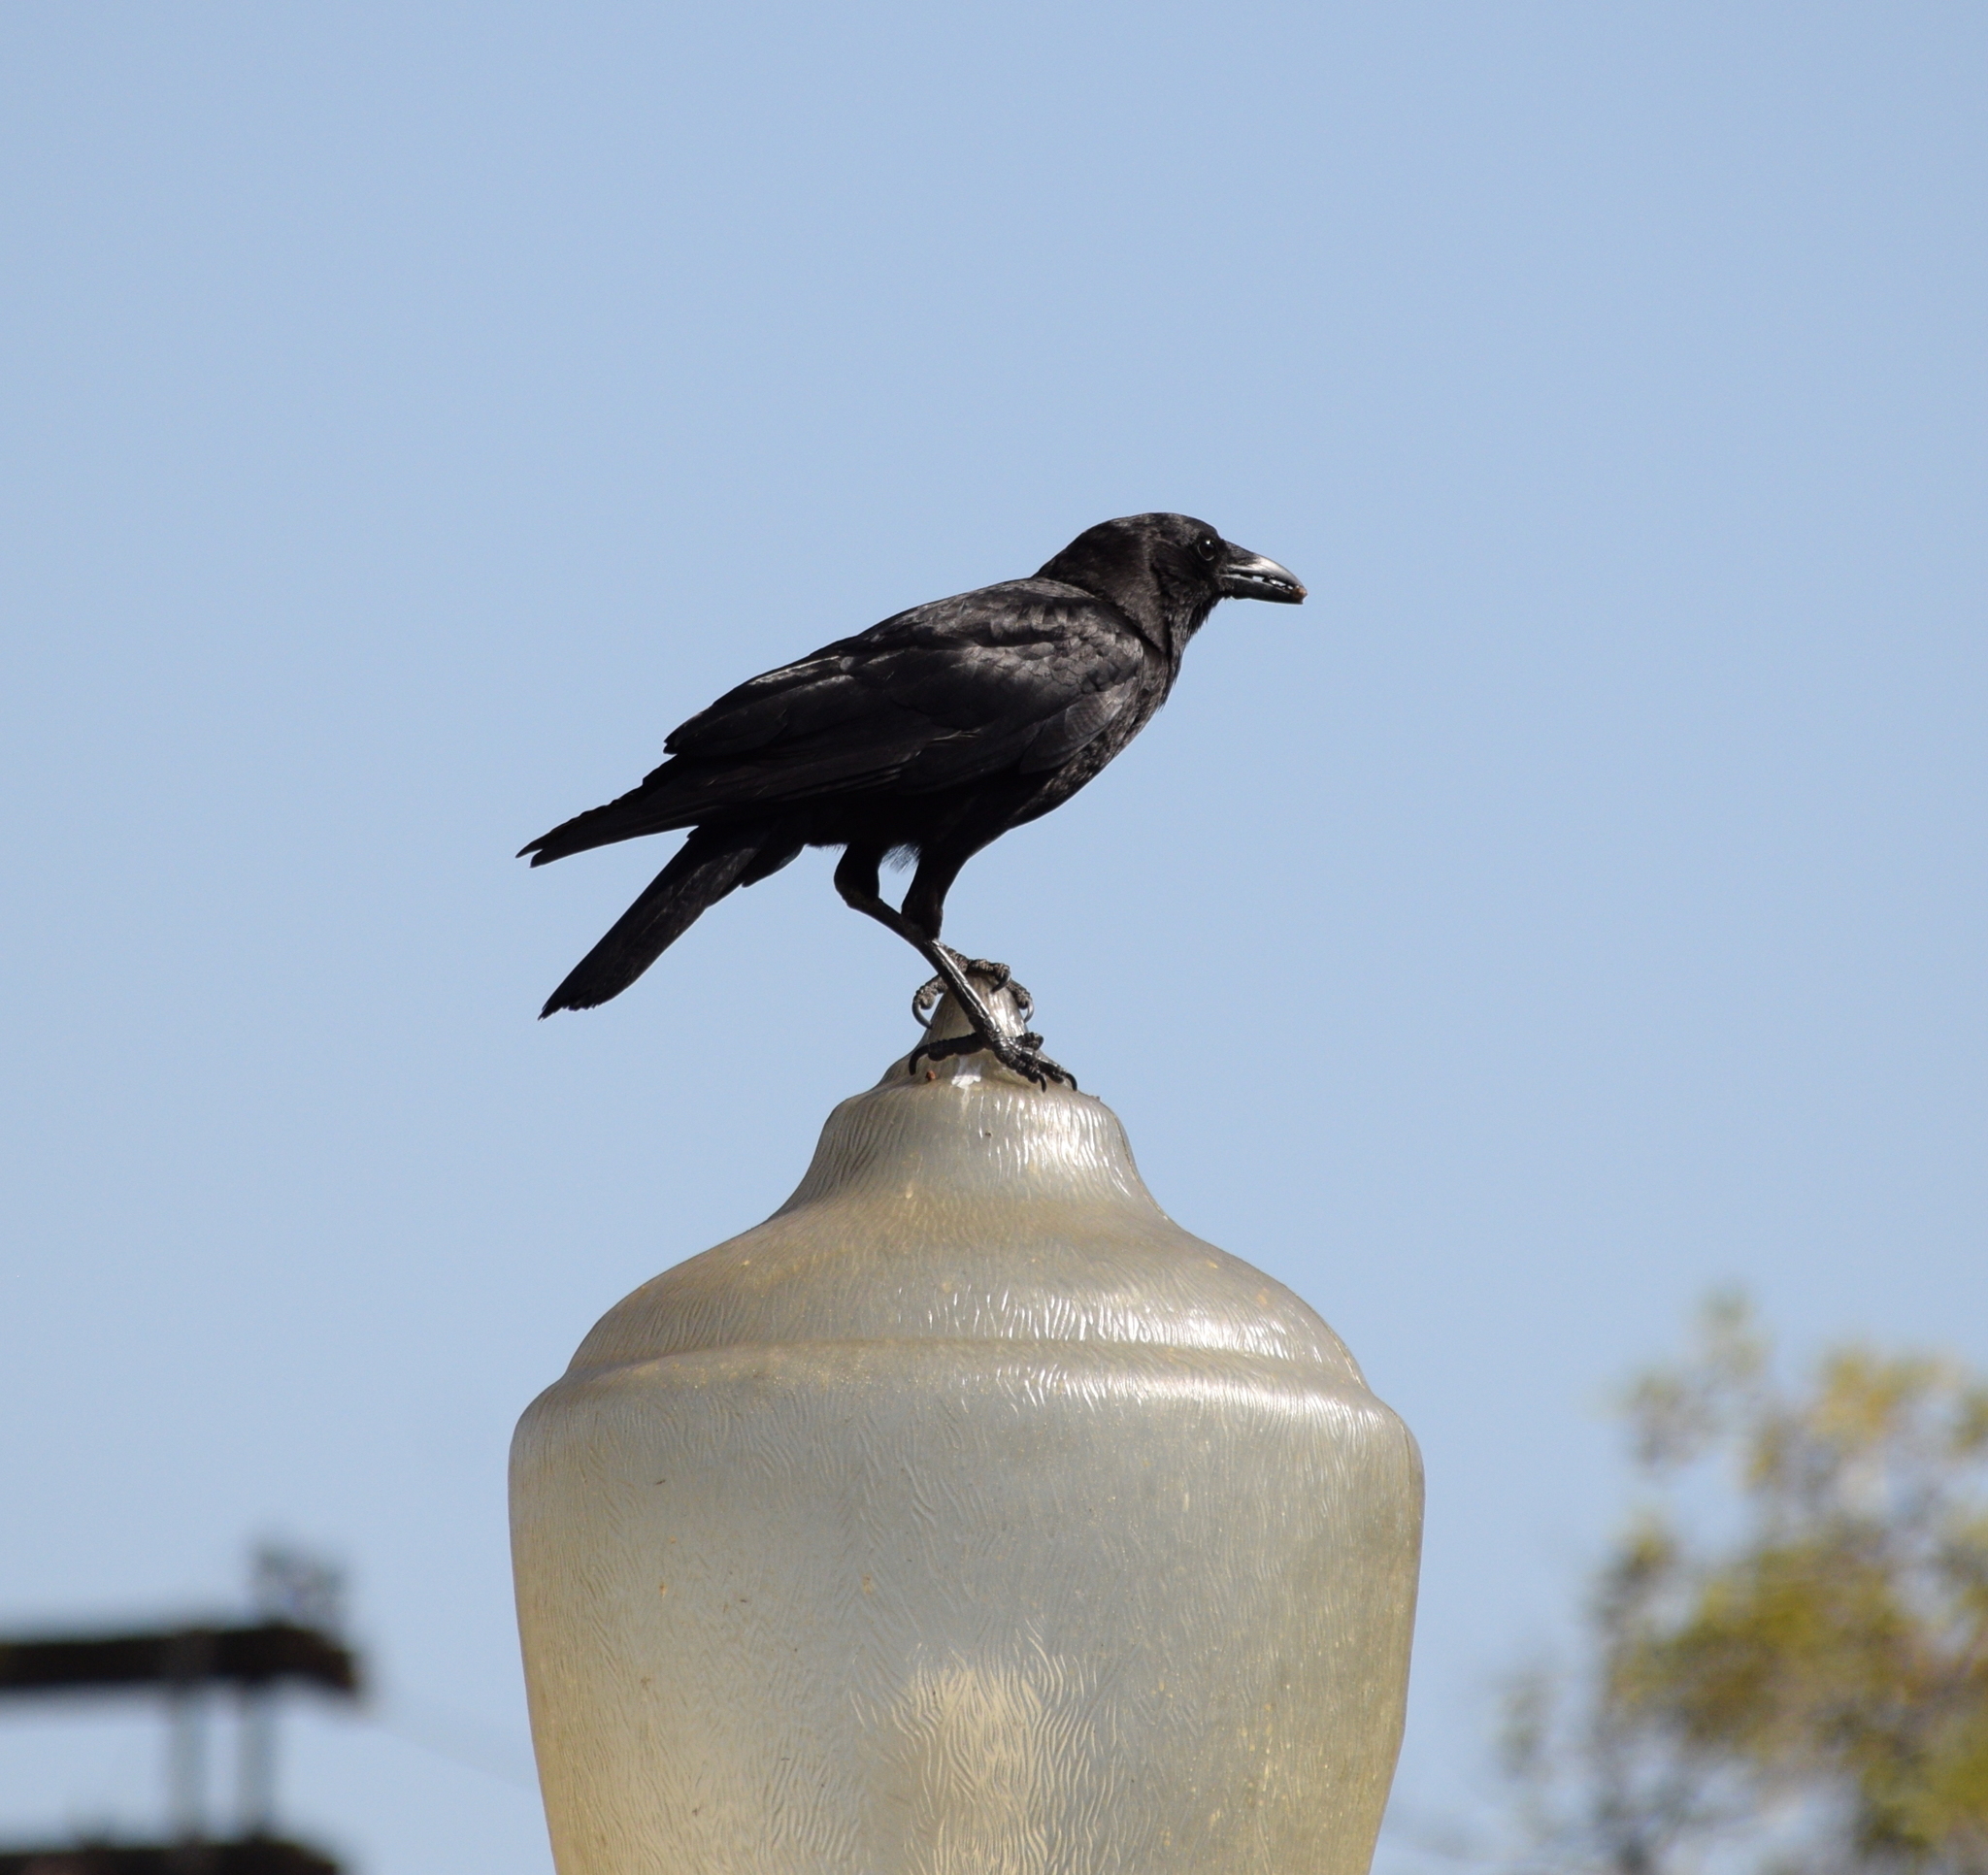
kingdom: Animalia
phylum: Chordata
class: Aves
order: Passeriformes
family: Corvidae
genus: Corvus
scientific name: Corvus brachyrhynchos
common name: American crow
